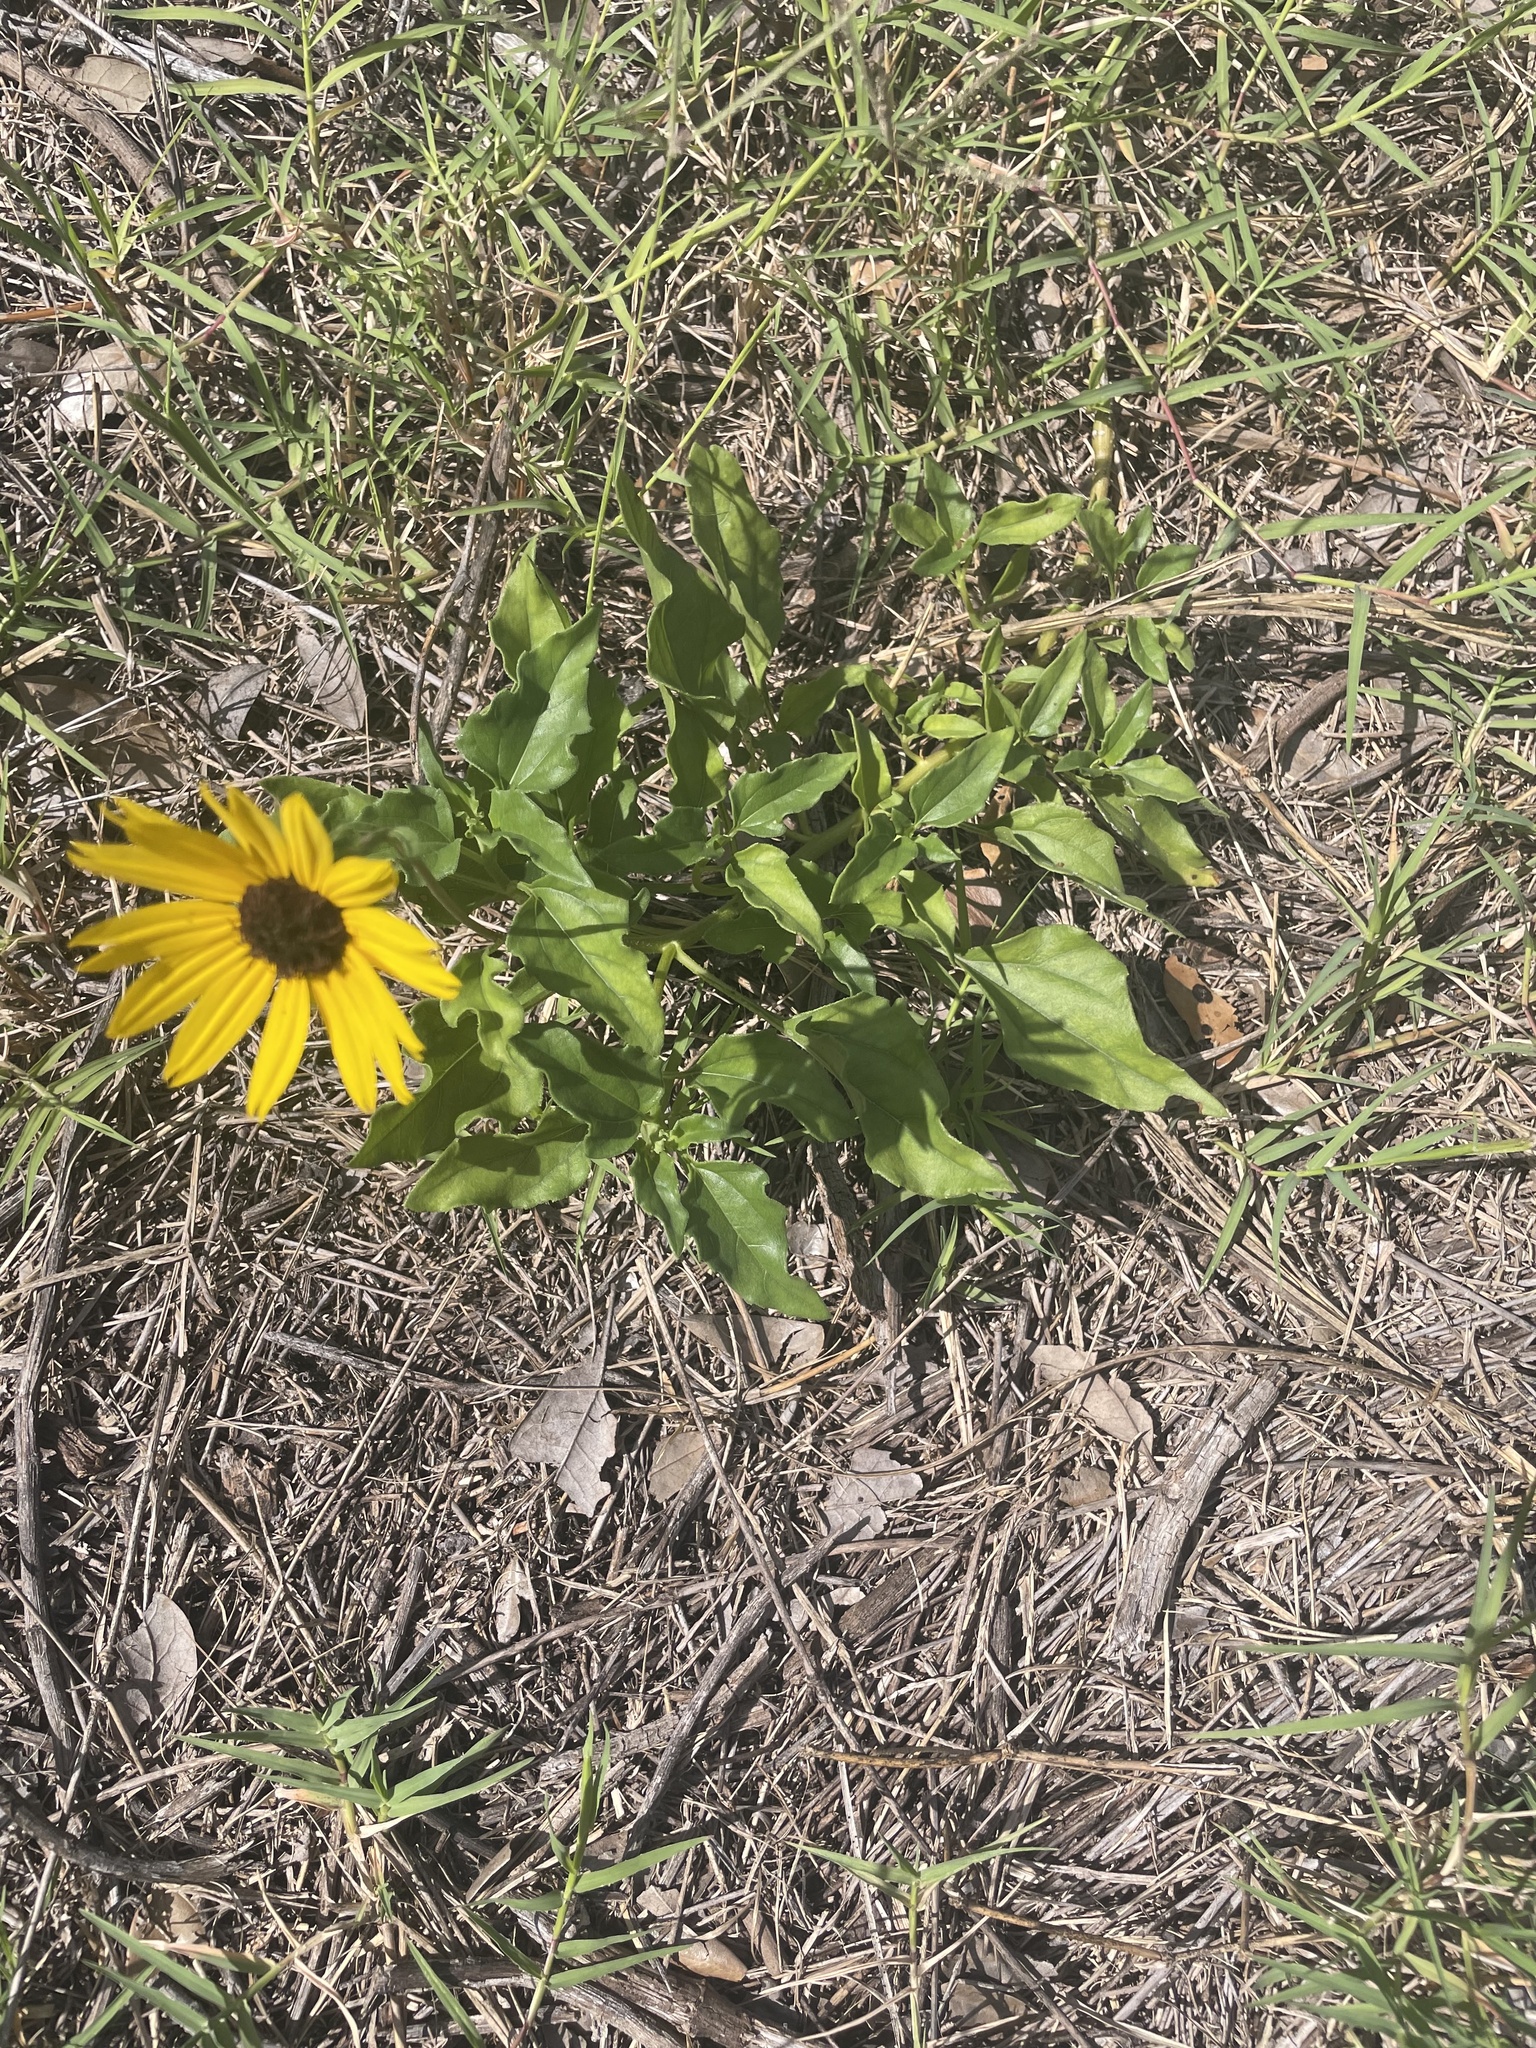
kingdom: Plantae
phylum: Tracheophyta
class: Magnoliopsida
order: Asterales
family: Asteraceae
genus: Helianthus
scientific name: Helianthus debilis
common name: Weak sunflower
